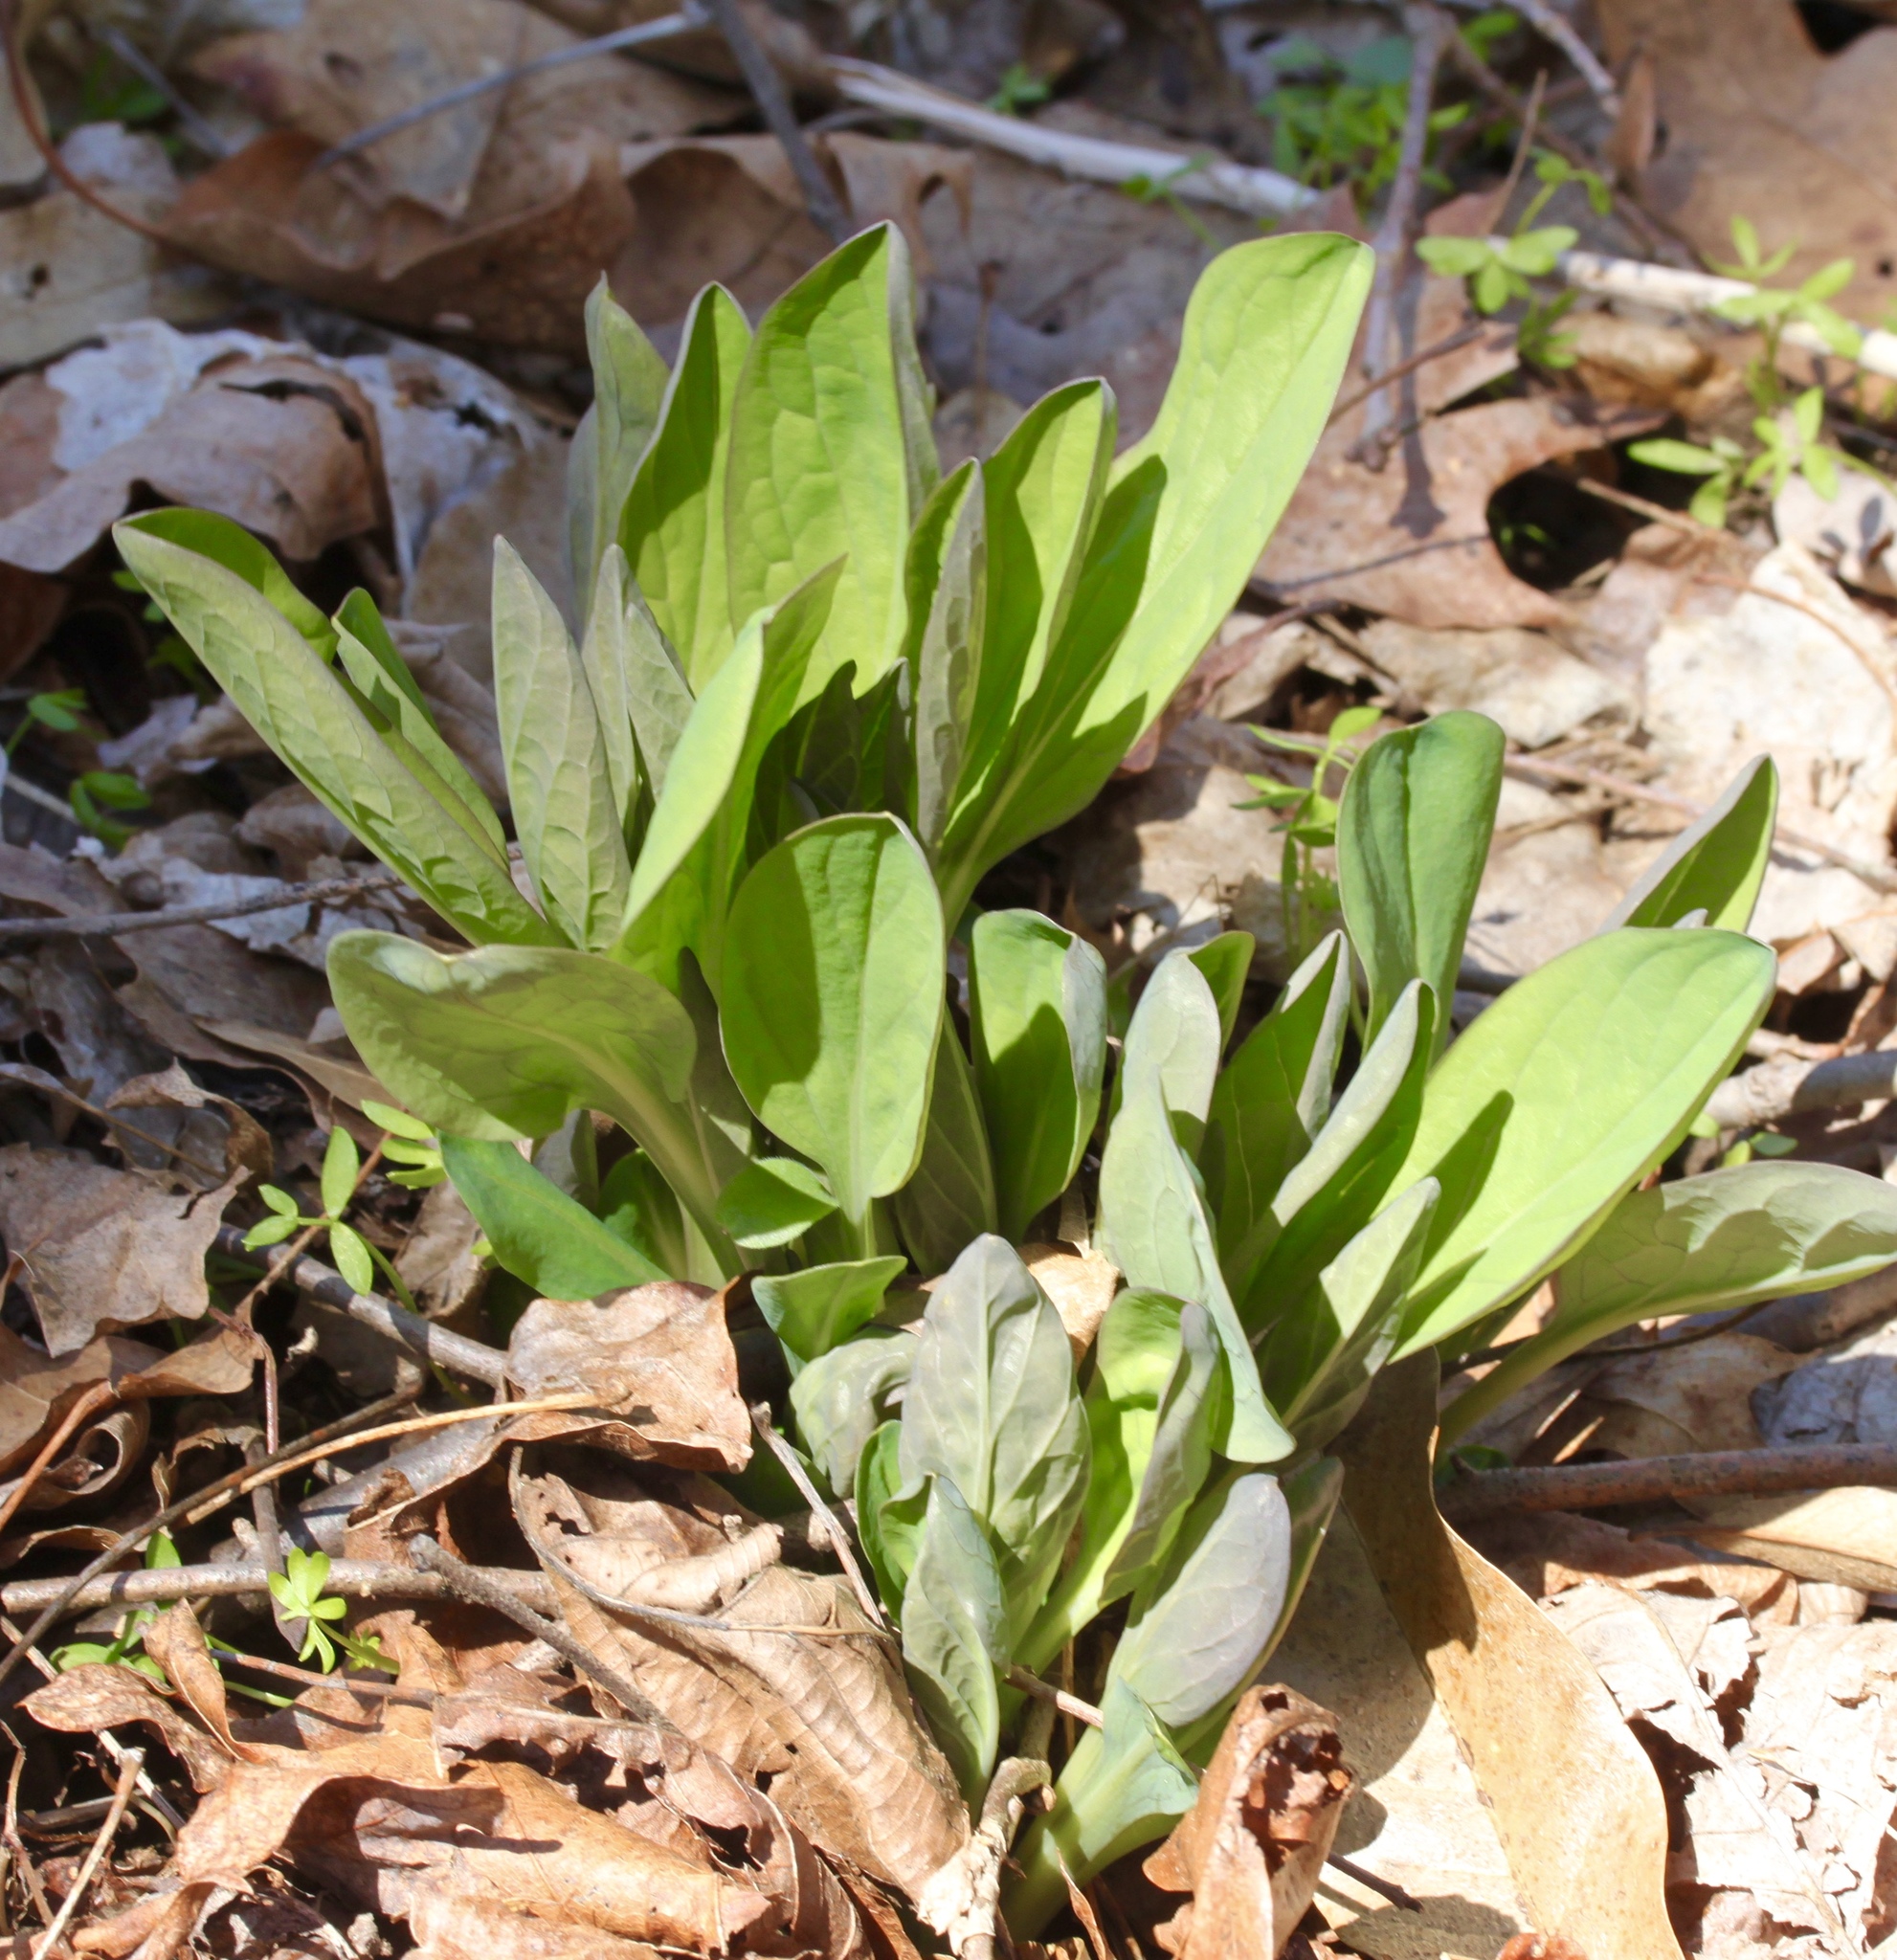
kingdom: Plantae
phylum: Tracheophyta
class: Magnoliopsida
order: Boraginales
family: Boraginaceae
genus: Mertensia
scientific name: Mertensia virginica
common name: Virginia bluebells
